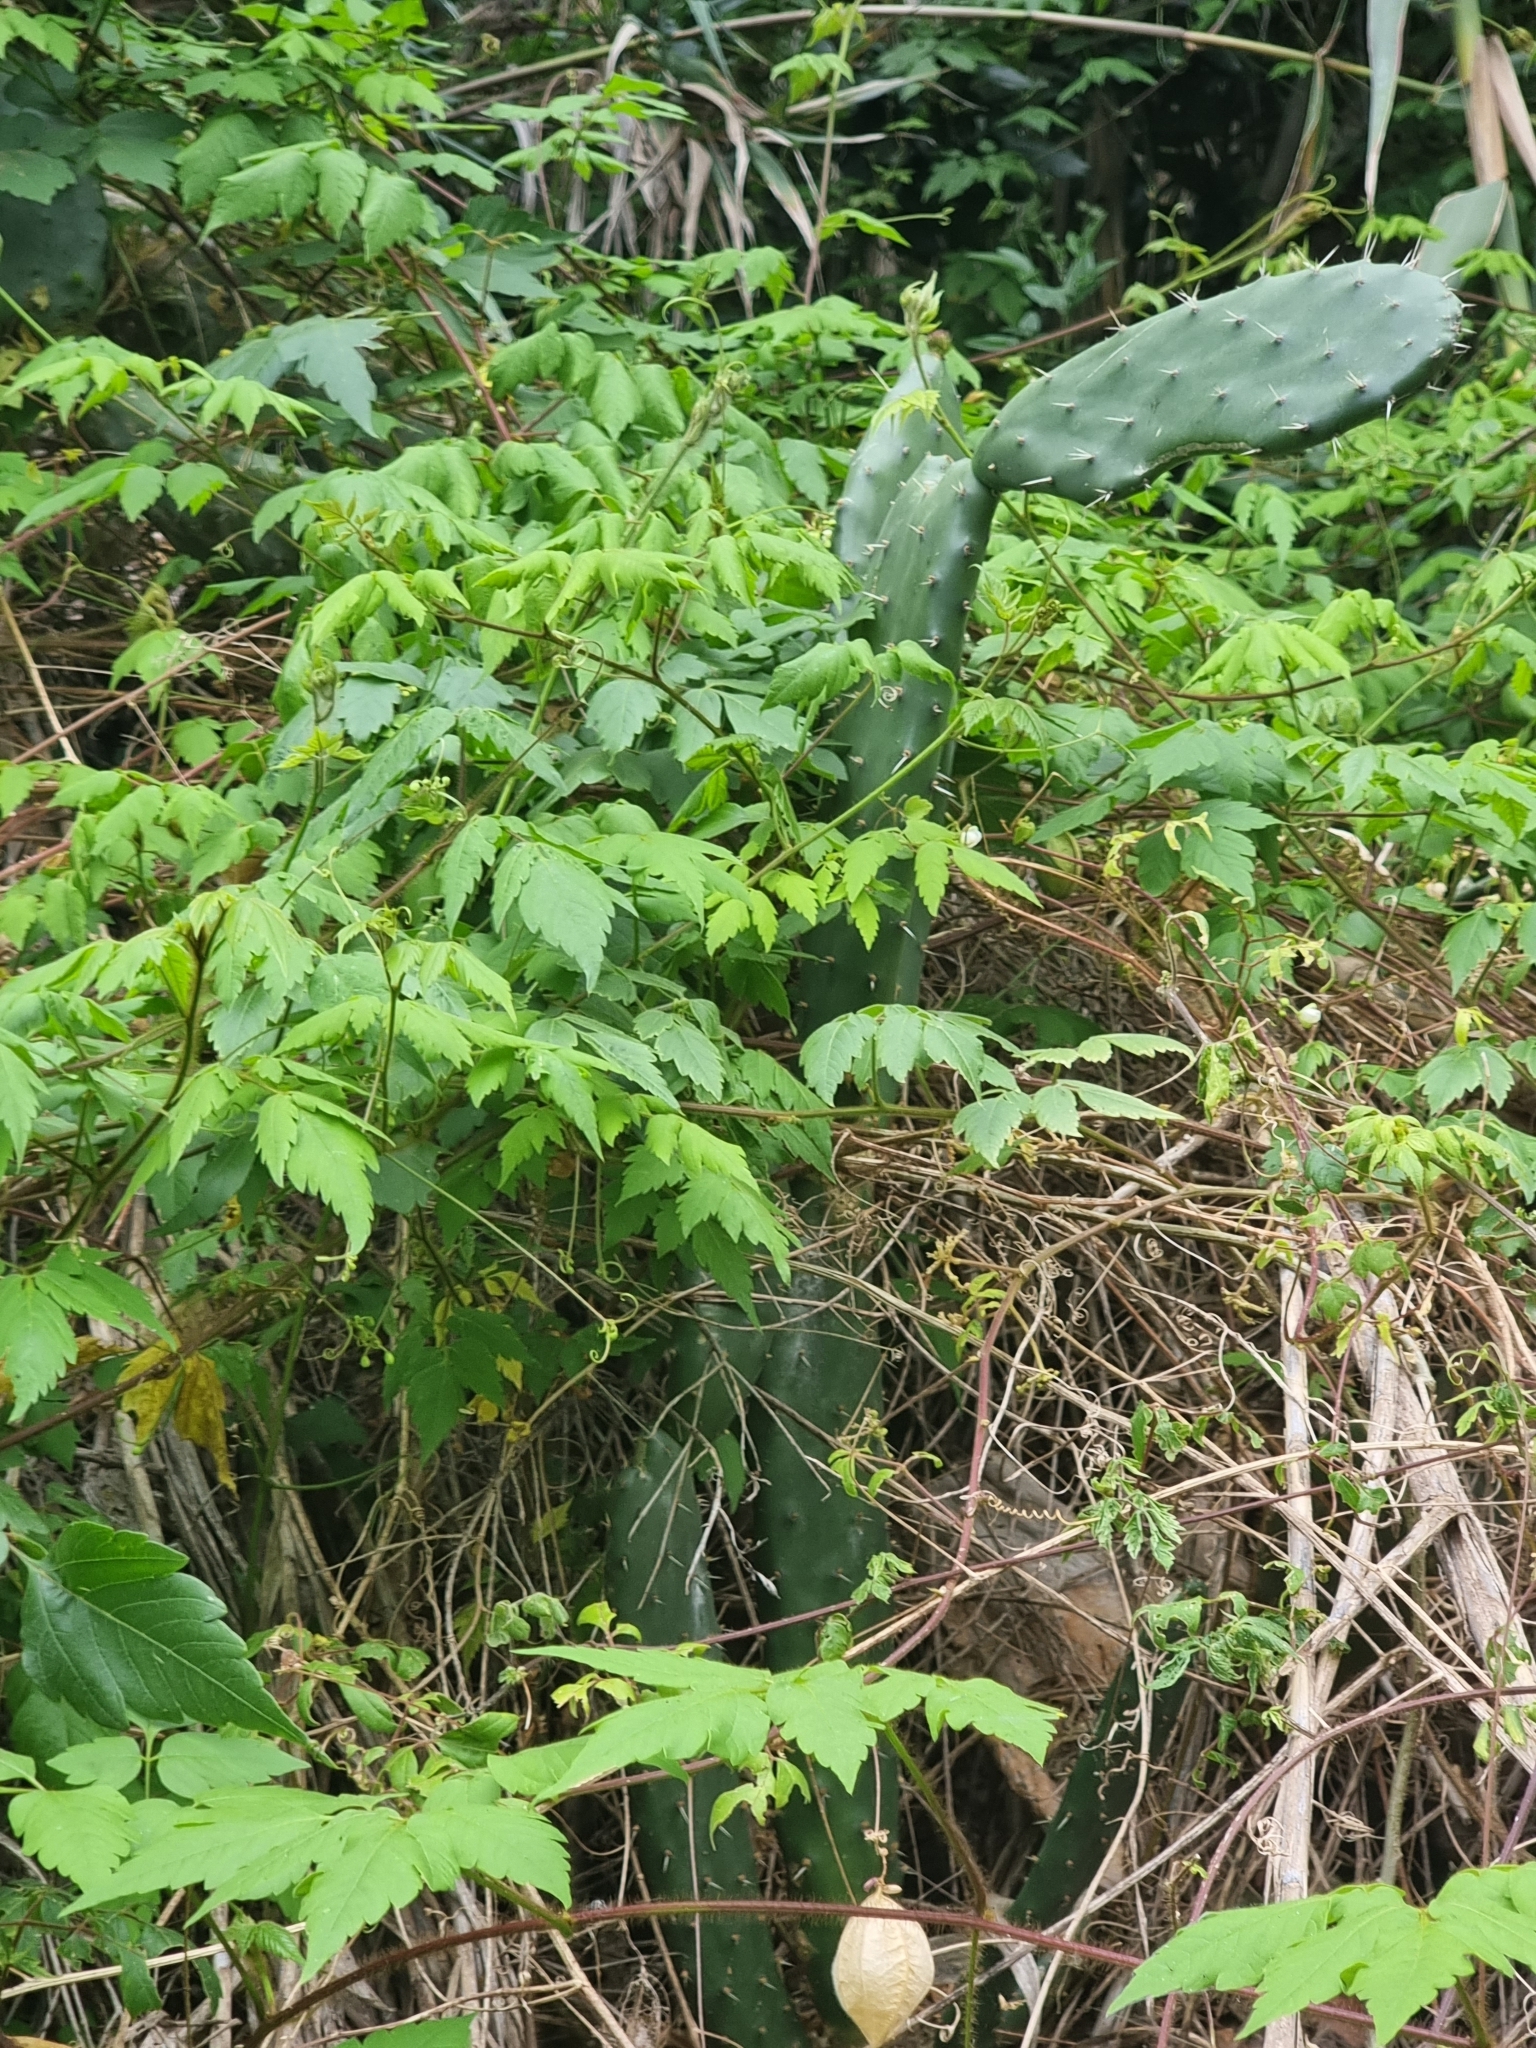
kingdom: Plantae
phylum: Tracheophyta
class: Magnoliopsida
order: Sapindales
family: Sapindaceae
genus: Cardiospermum
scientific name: Cardiospermum grandiflorum
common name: Balloon vine
